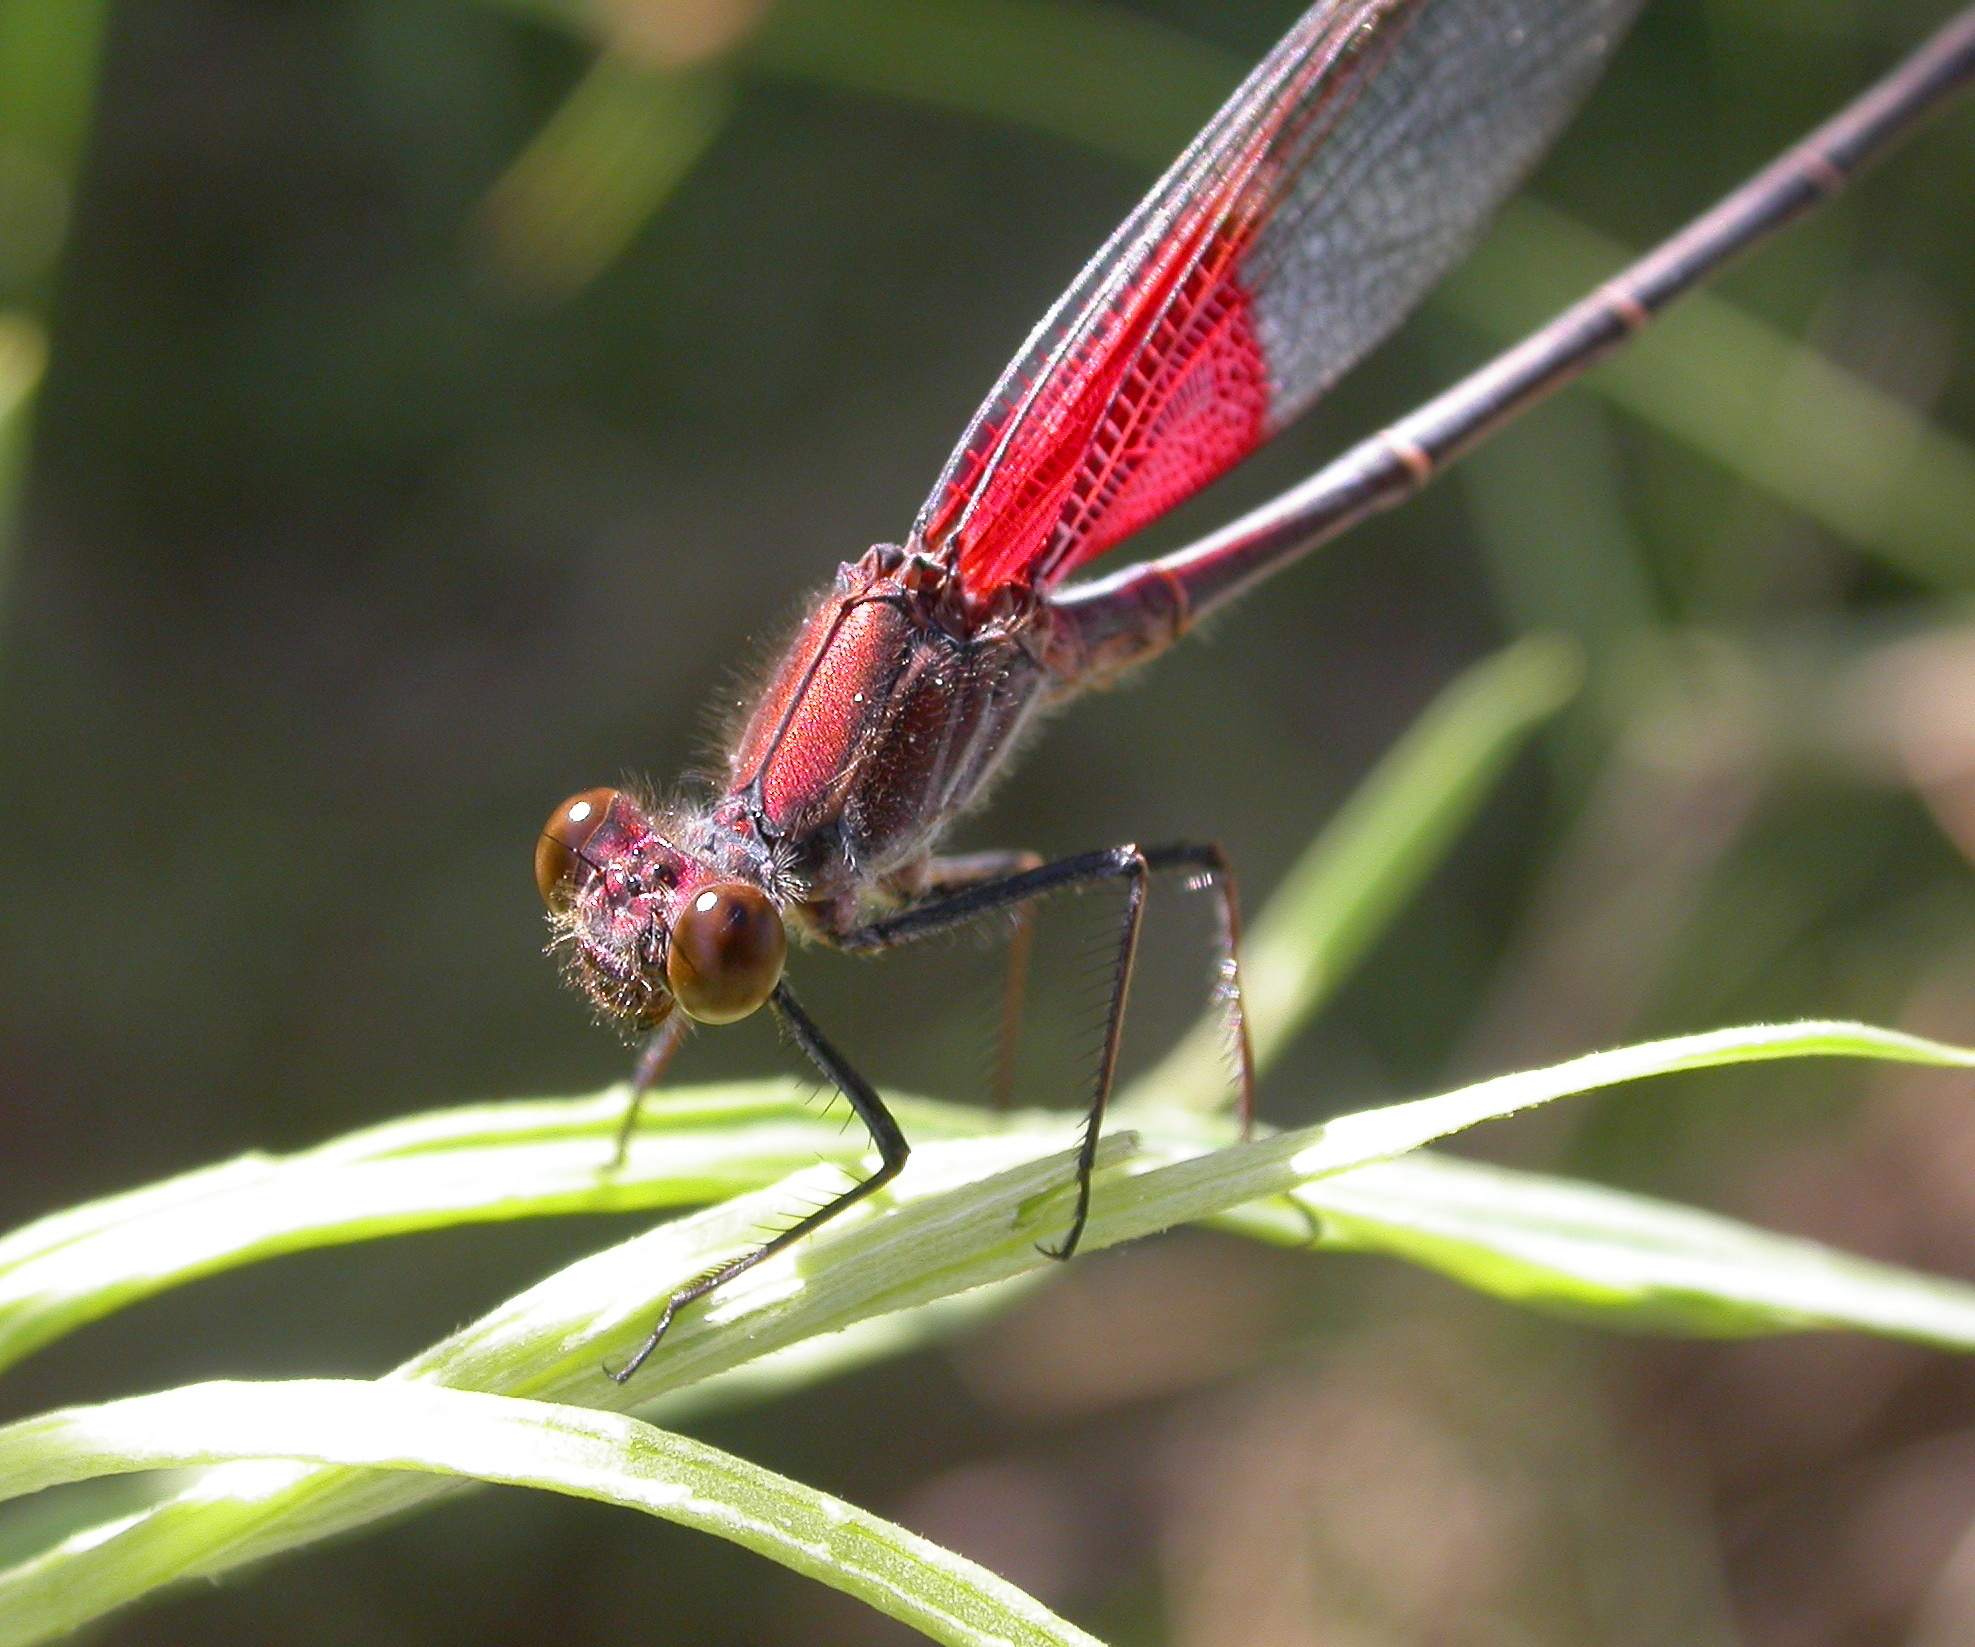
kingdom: Animalia
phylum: Arthropoda
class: Insecta
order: Odonata
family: Calopterygidae
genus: Hetaerina
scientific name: Hetaerina americana
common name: American rubyspot
